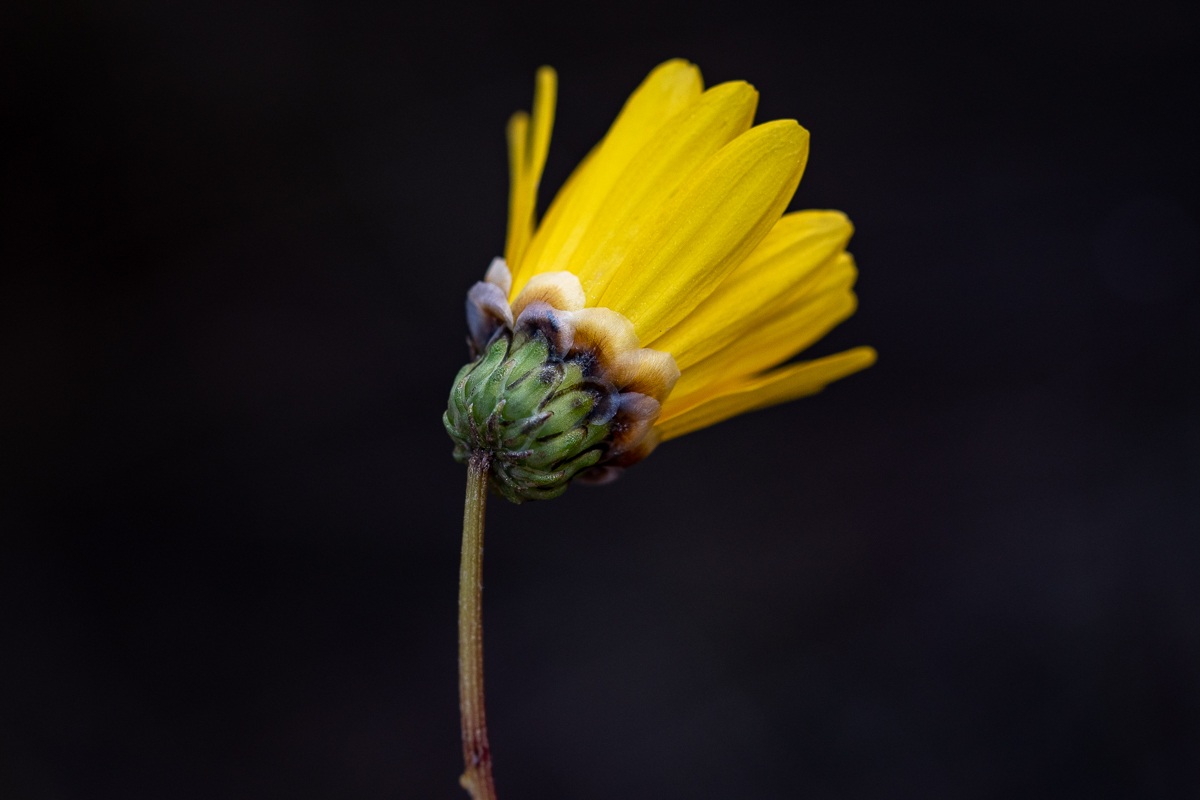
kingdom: Plantae
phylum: Tracheophyta
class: Magnoliopsida
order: Asterales
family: Asteraceae
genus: Ursinia
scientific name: Ursinia paleacea
